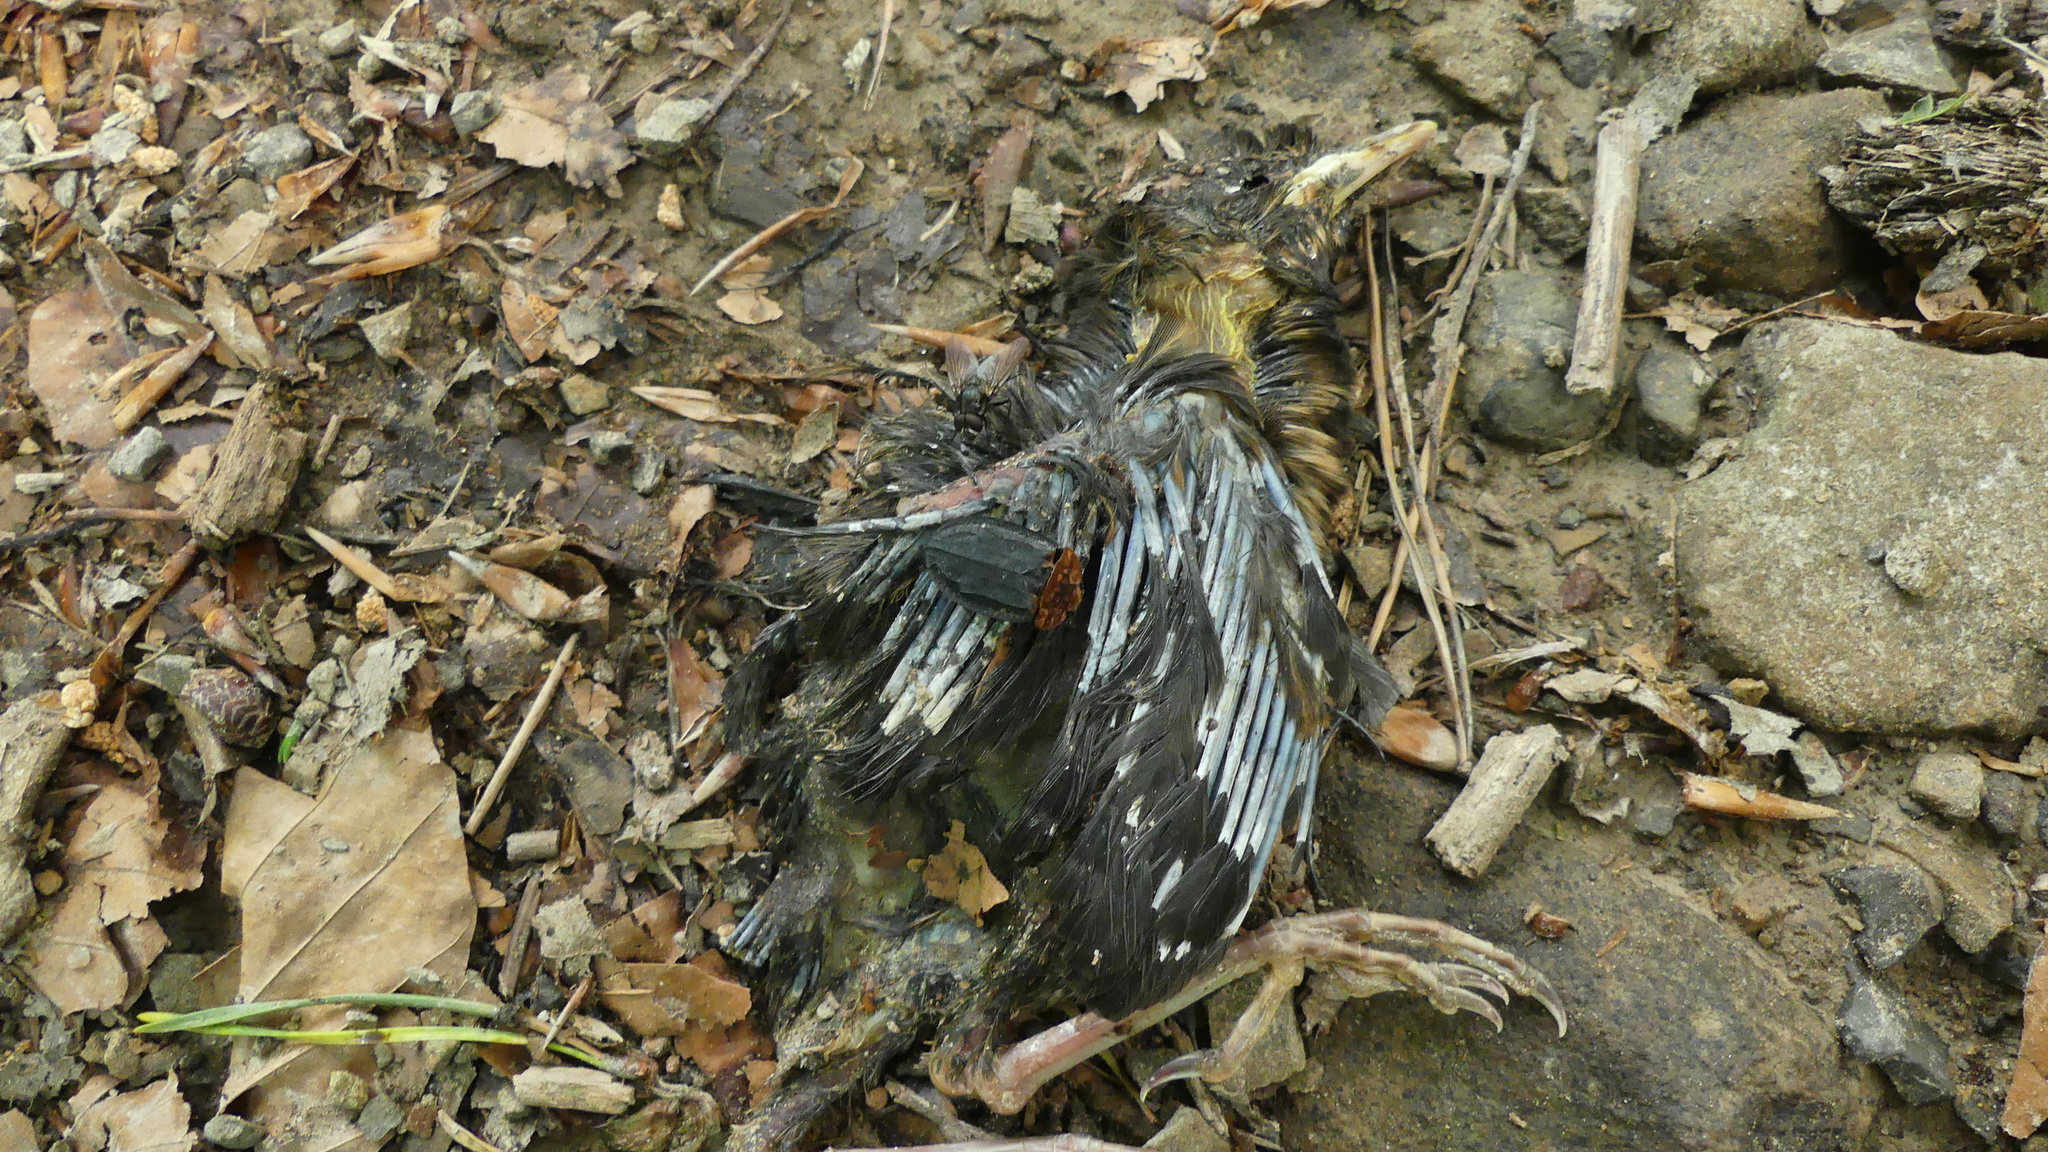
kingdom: Animalia
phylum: Arthropoda
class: Insecta
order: Coleoptera
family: Staphylinidae
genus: Oiceoptoma
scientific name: Oiceoptoma thoracicum
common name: Red-breasted carrion beetle
